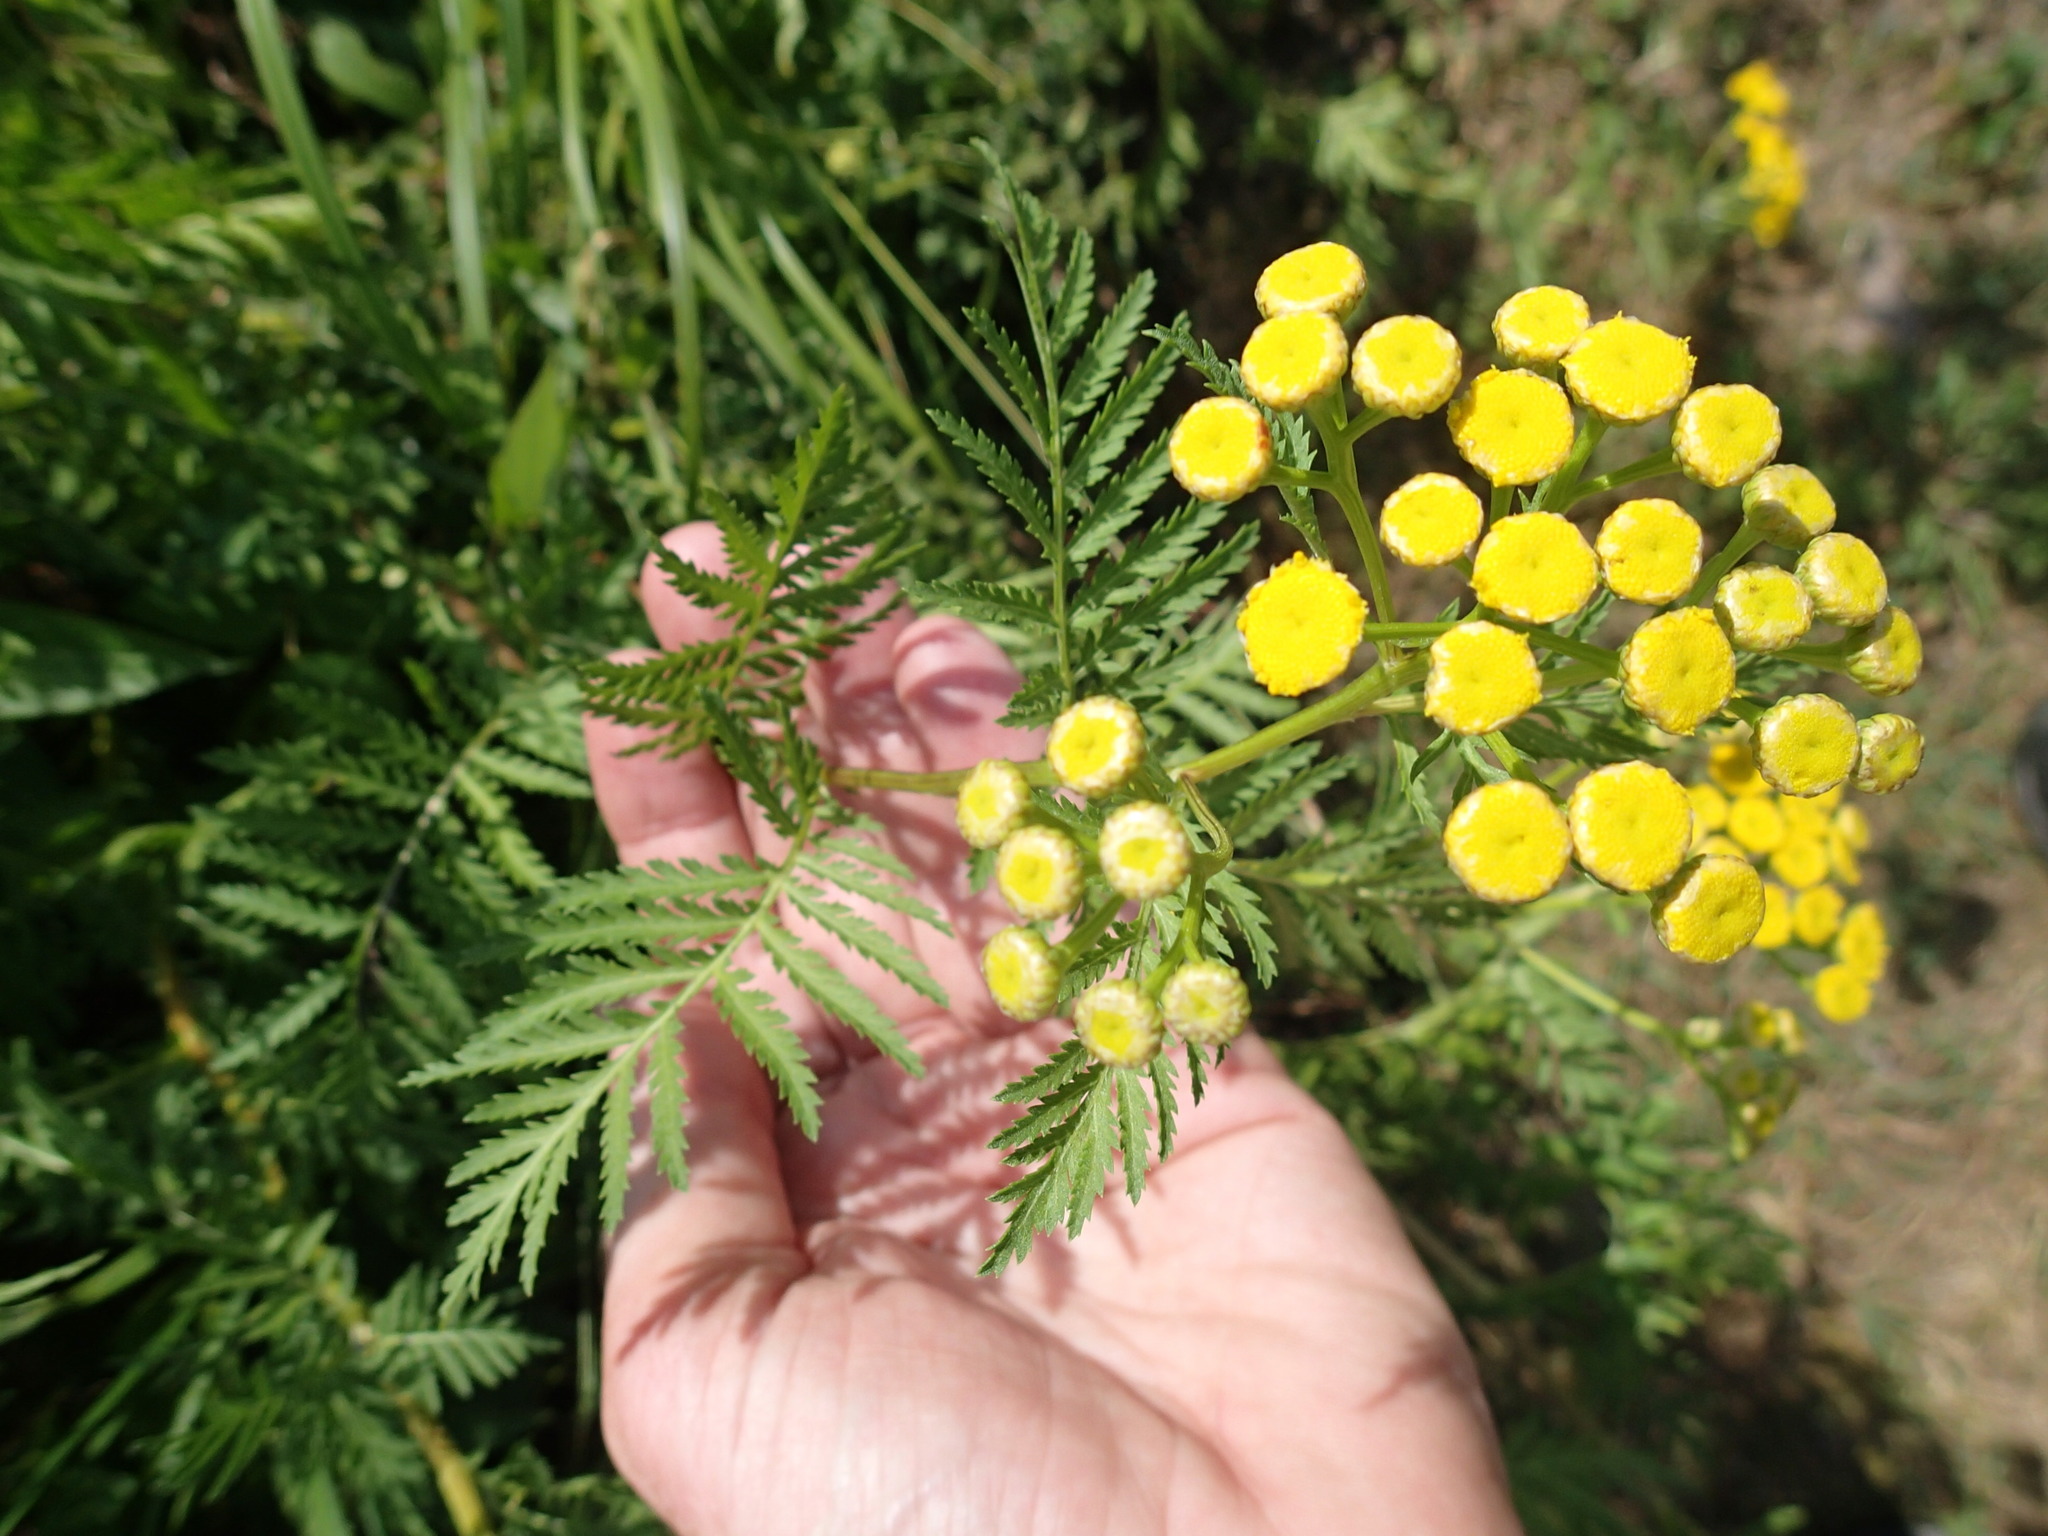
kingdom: Plantae
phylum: Tracheophyta
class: Magnoliopsida
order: Asterales
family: Asteraceae
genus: Tanacetum
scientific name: Tanacetum vulgare
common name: Common tansy
